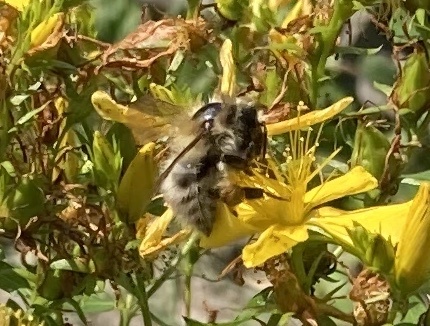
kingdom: Animalia
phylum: Arthropoda
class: Insecta
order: Hymenoptera
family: Apidae
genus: Bombus
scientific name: Bombus pascuorum
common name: Common carder bee
